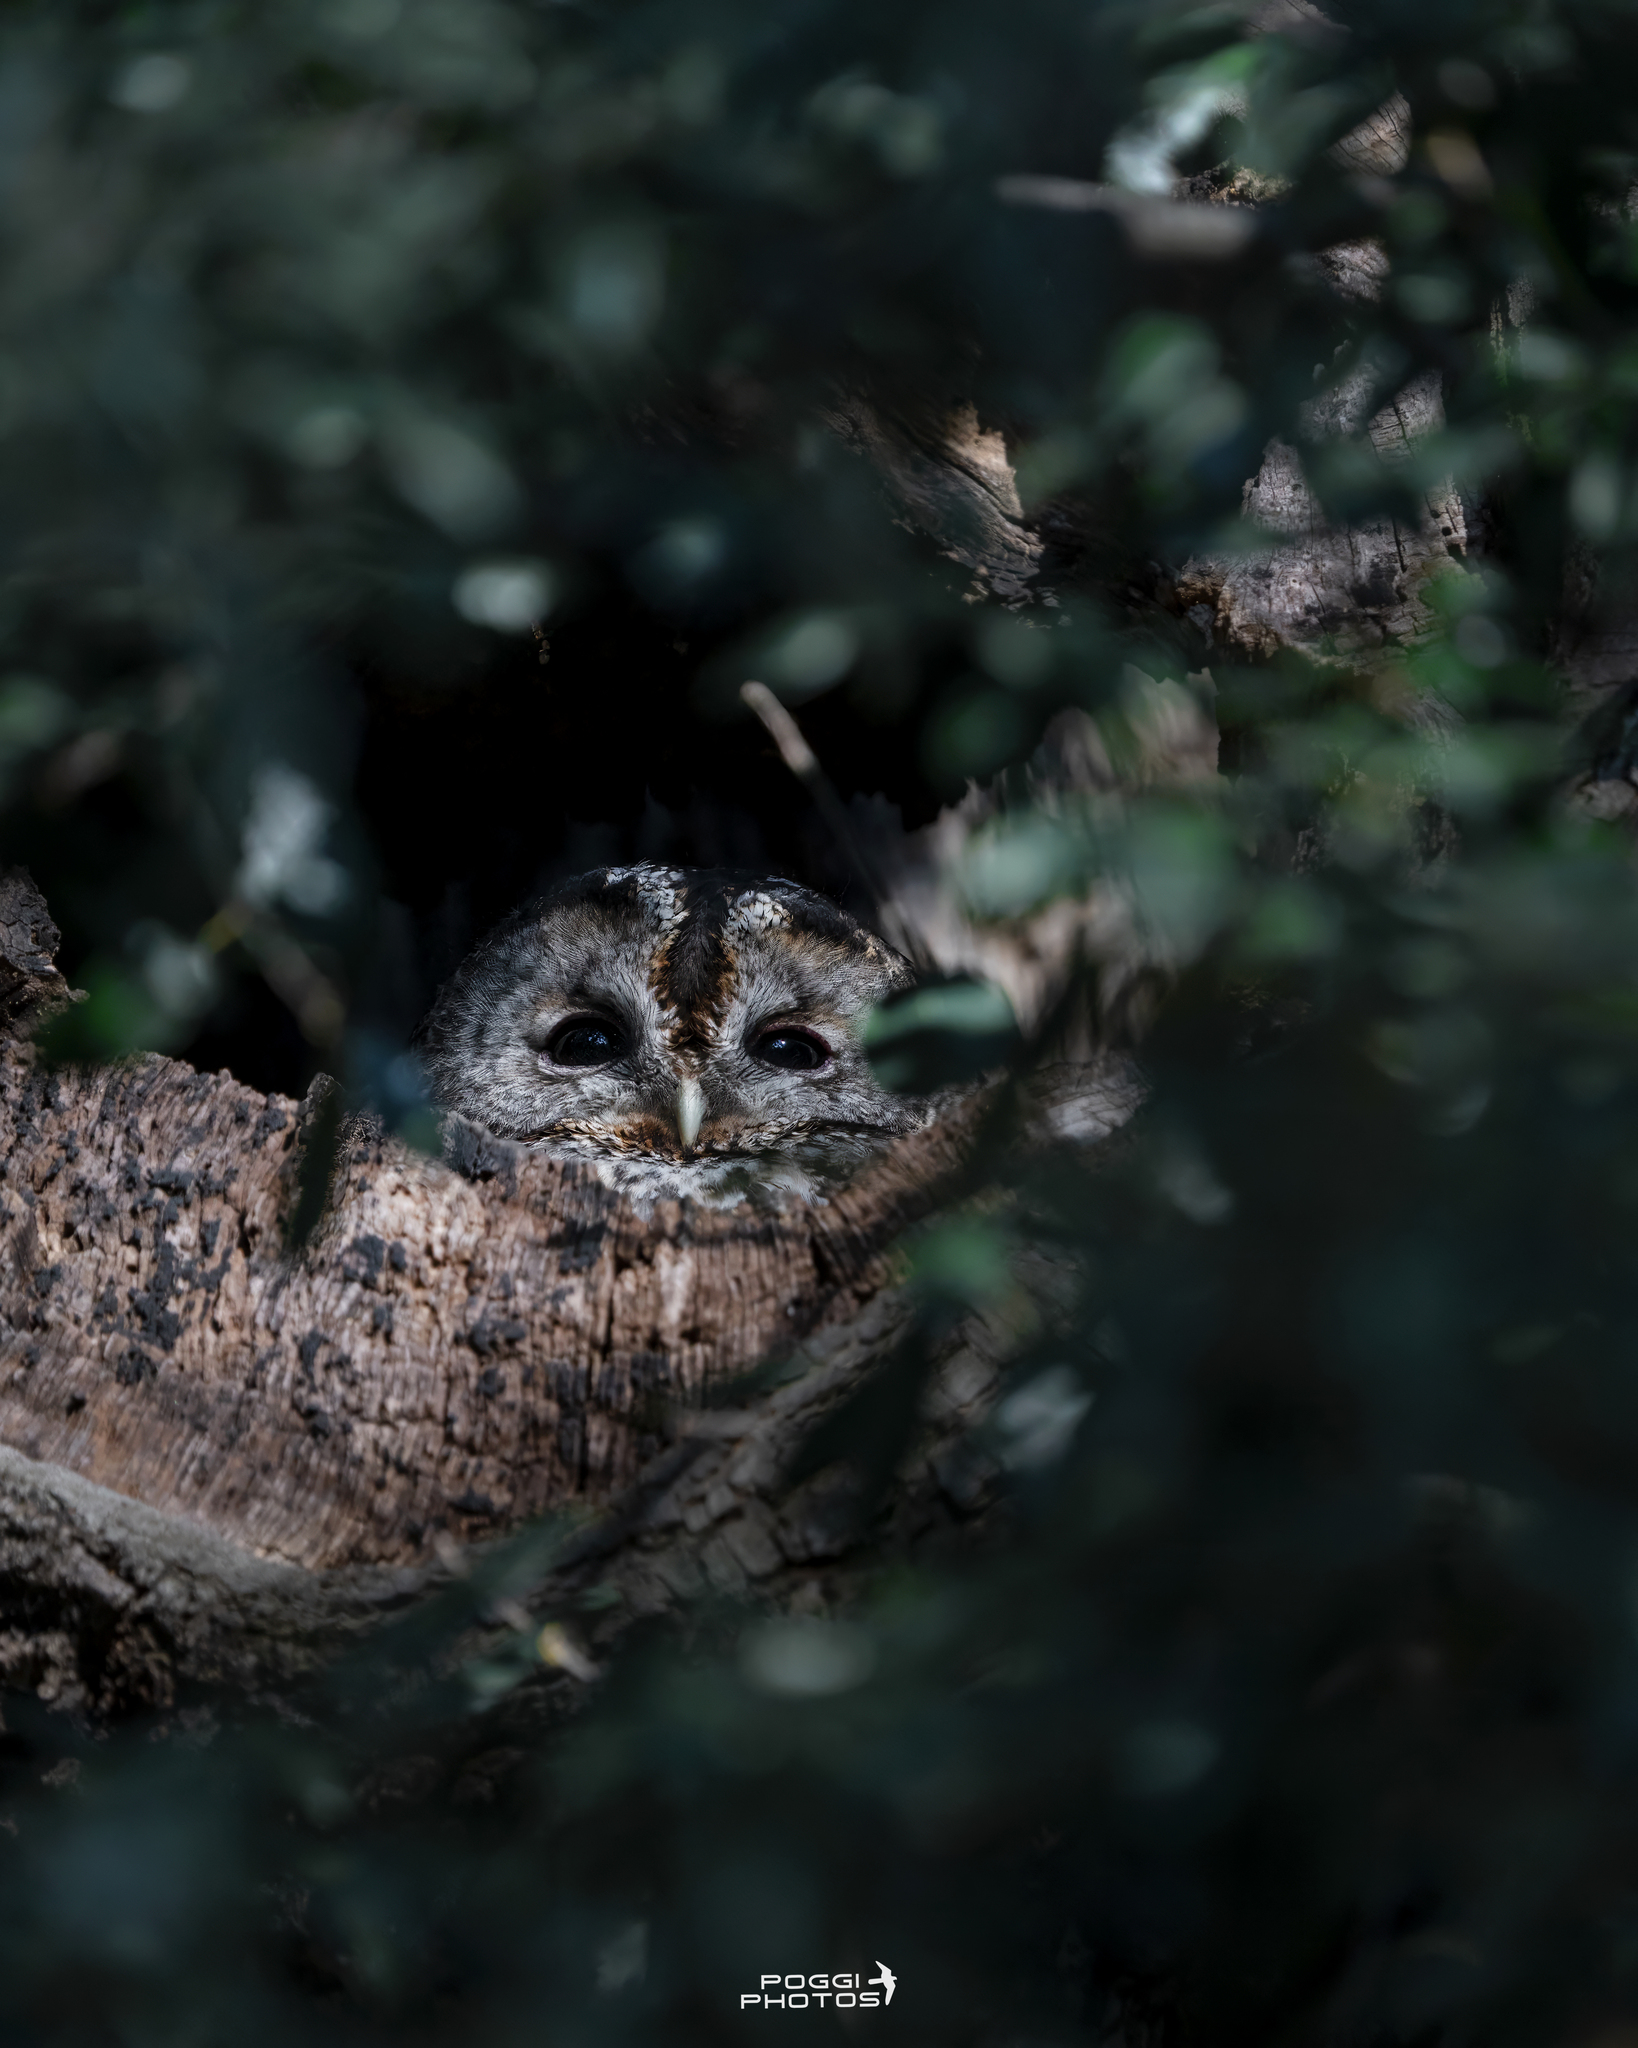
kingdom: Animalia
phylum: Chordata
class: Aves
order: Strigiformes
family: Strigidae
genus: Strix
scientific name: Strix aluco
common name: Tawny owl
